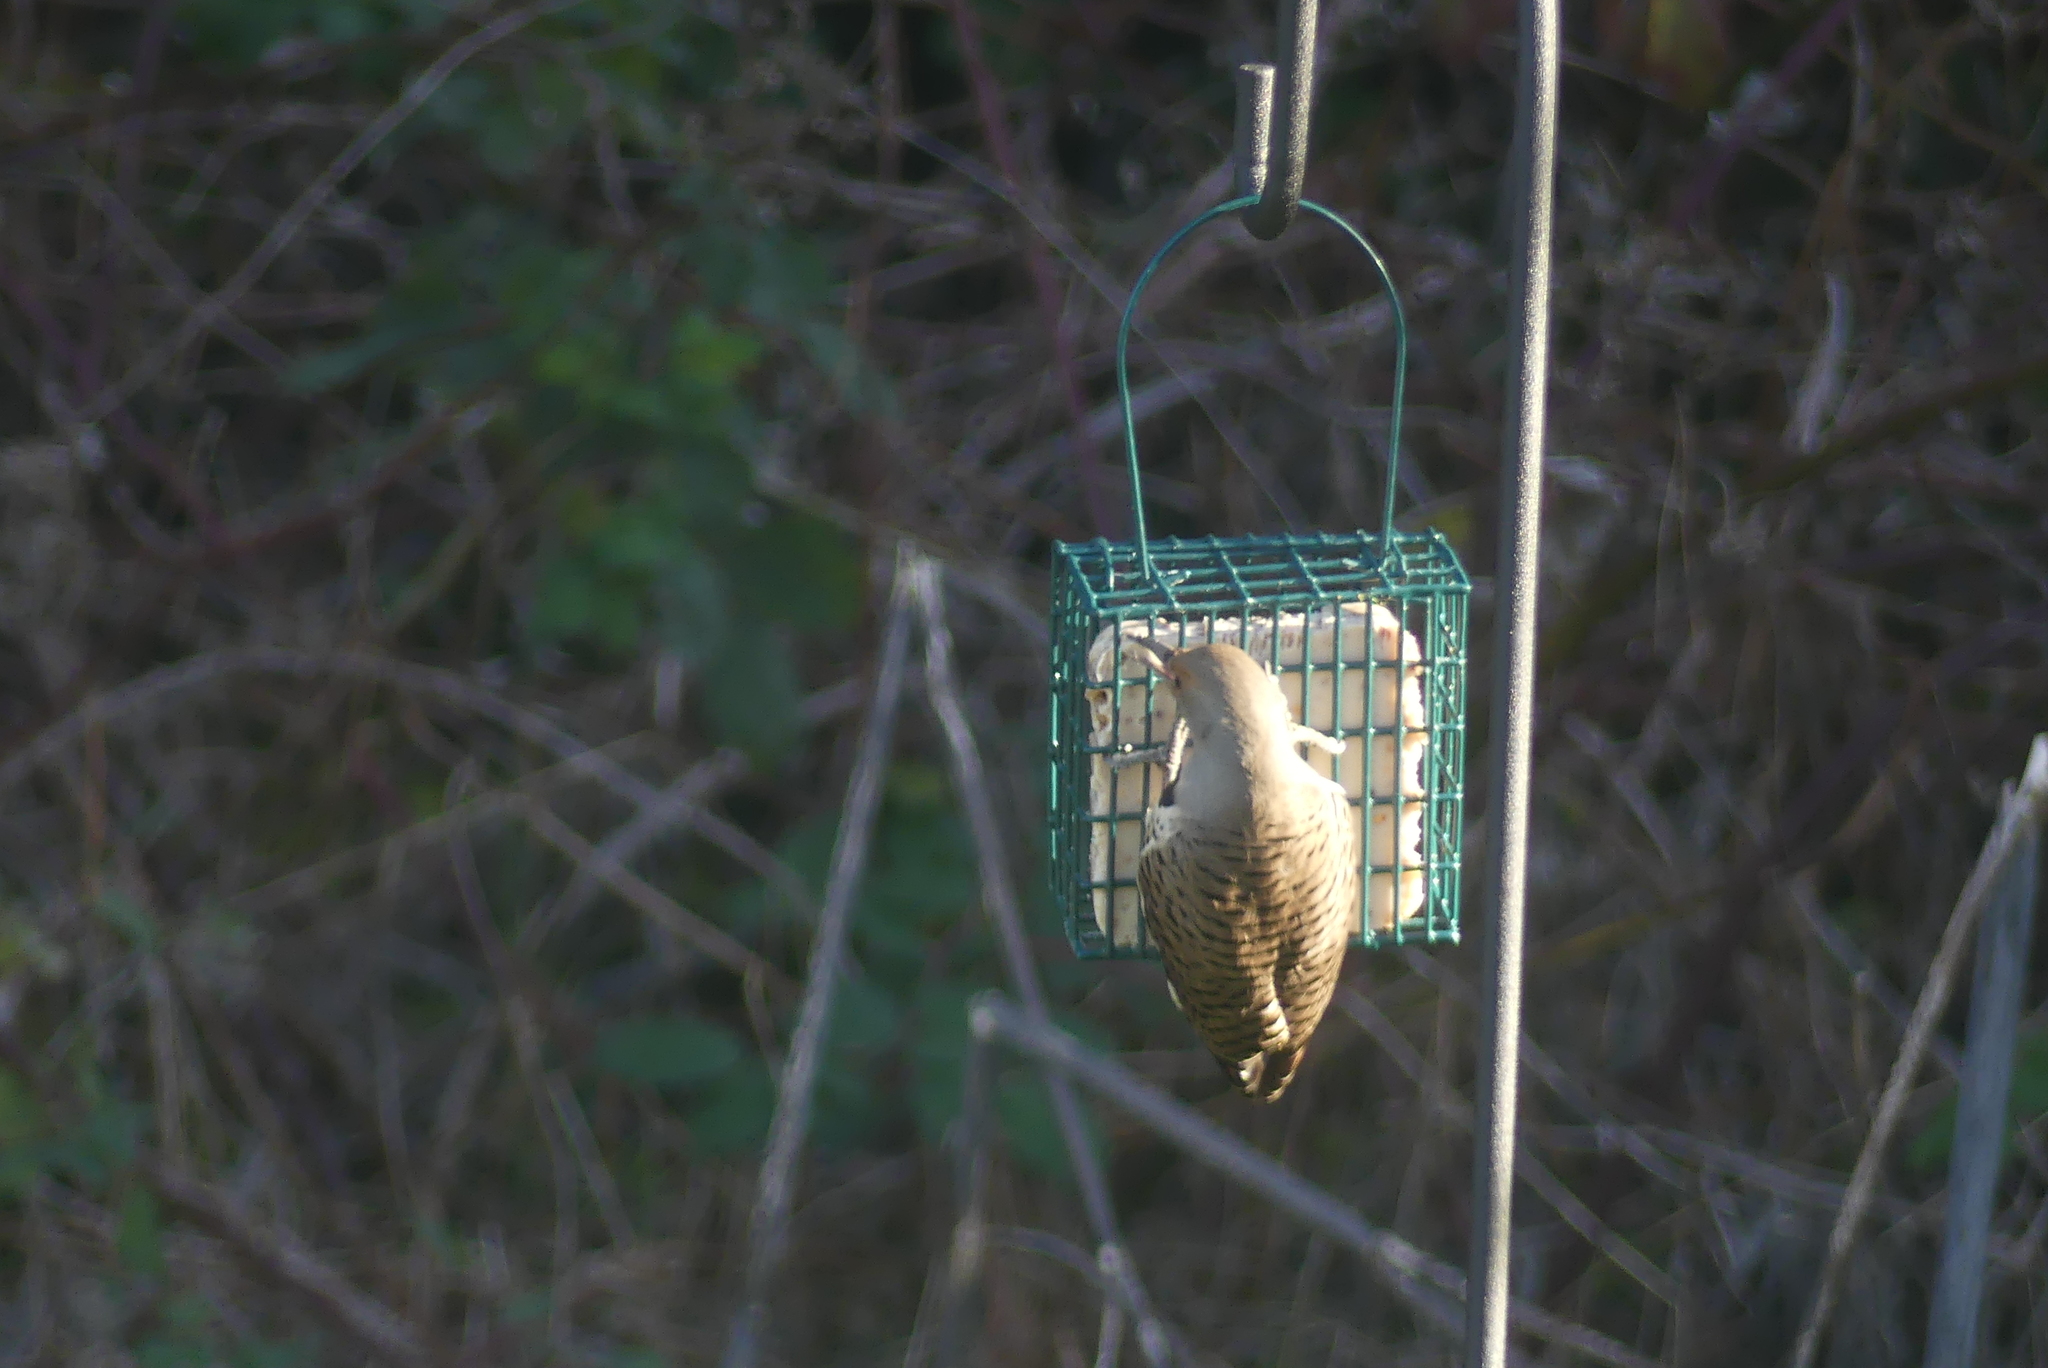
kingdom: Animalia
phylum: Chordata
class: Aves
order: Piciformes
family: Picidae
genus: Colaptes
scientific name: Colaptes auratus
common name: Northern flicker
